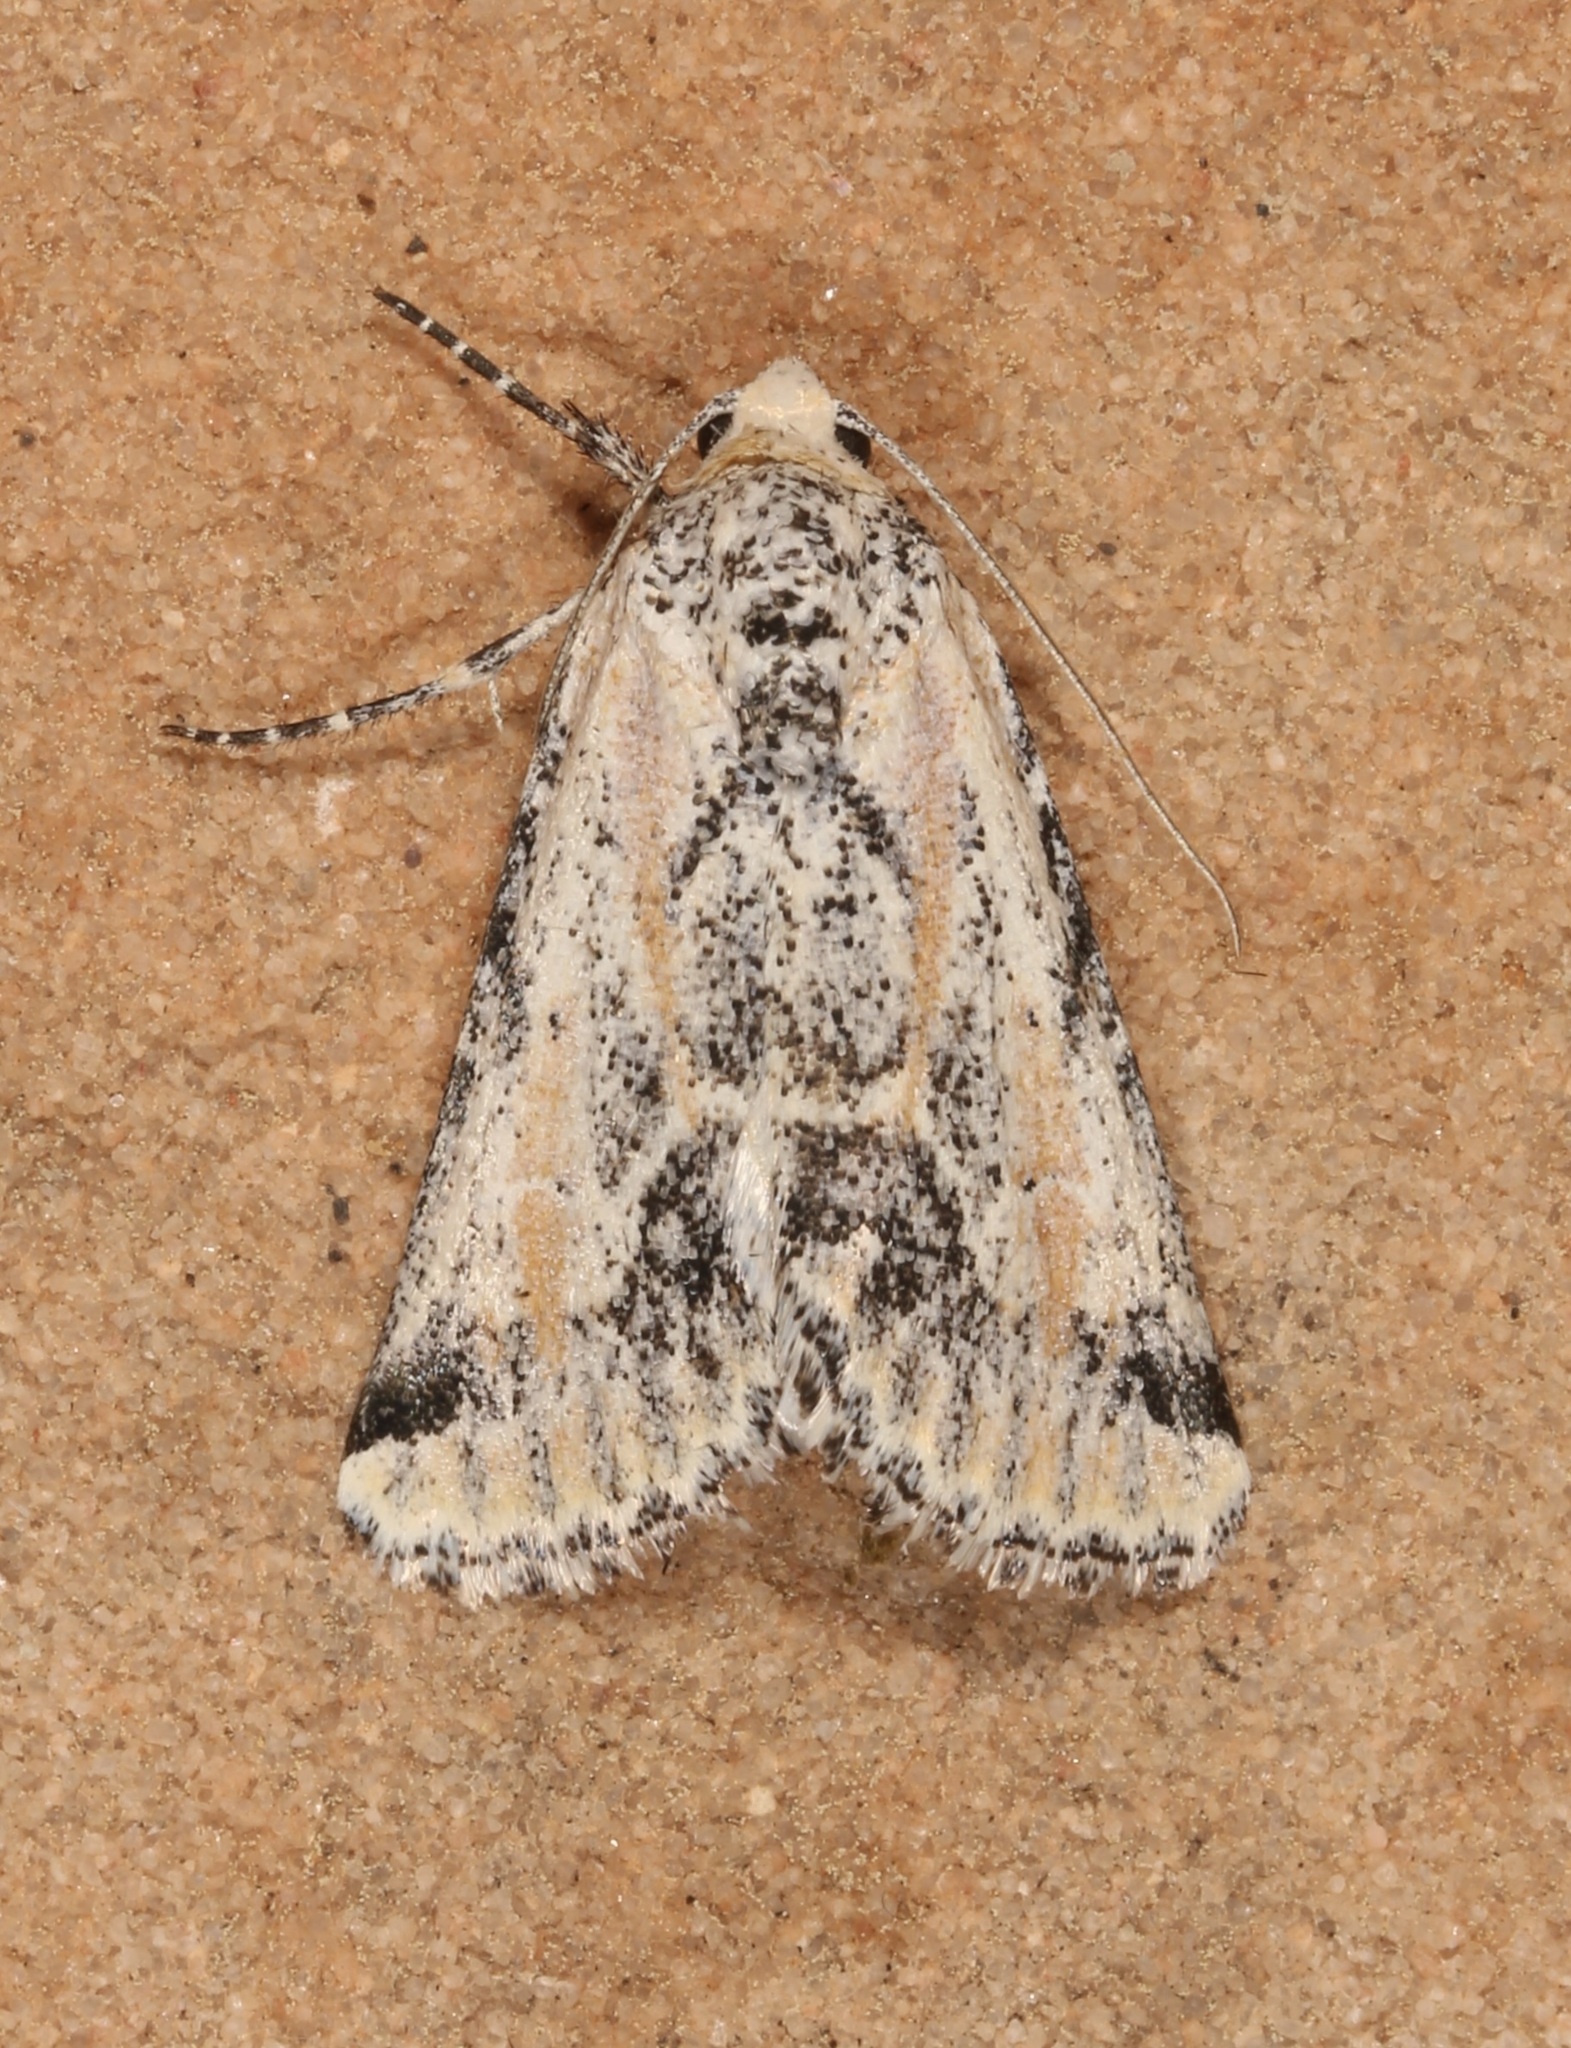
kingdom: Animalia
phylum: Arthropoda
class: Insecta
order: Lepidoptera
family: Noctuidae
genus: Podagra
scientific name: Podagra crassipes
